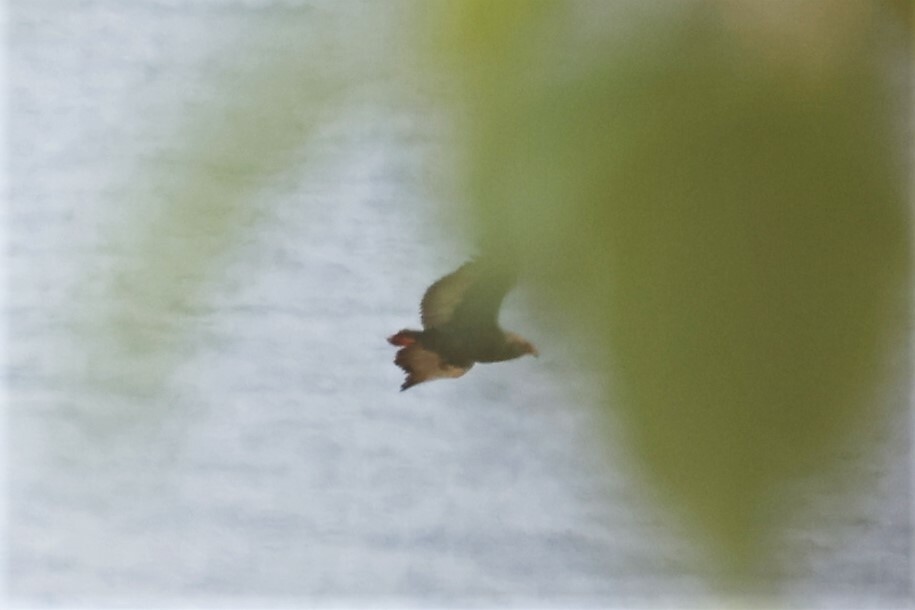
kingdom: Animalia
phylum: Chordata
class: Aves
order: Accipitriformes
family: Accipitridae
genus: Terathopius
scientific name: Terathopius ecaudatus
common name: Bateleur
